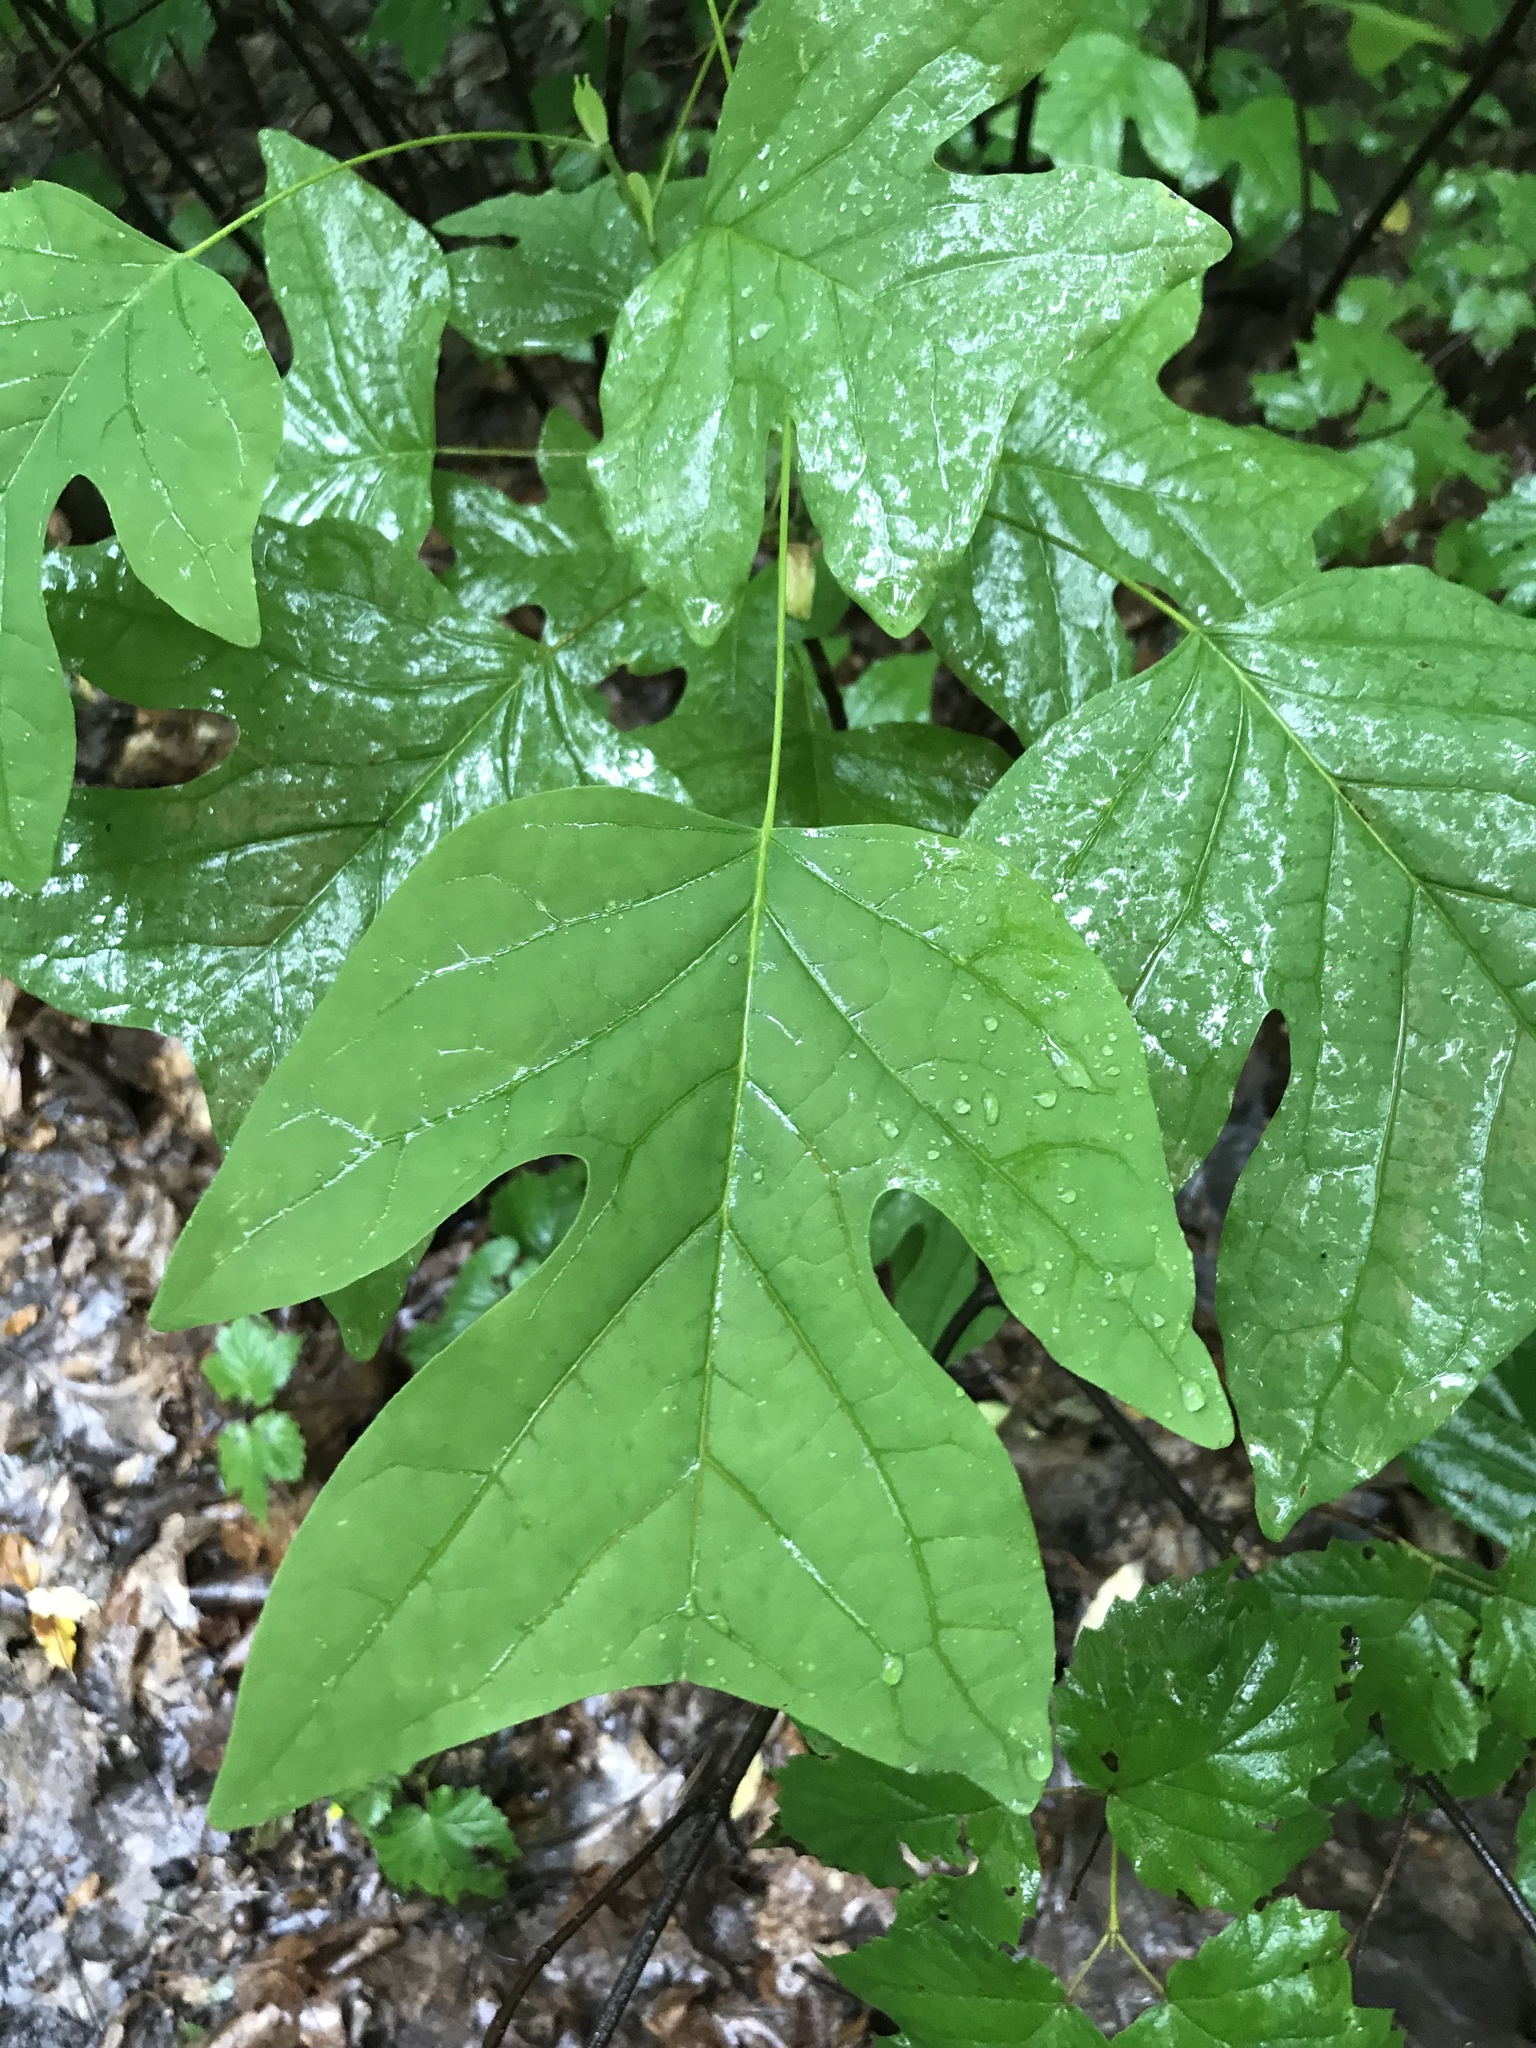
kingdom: Plantae
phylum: Tracheophyta
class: Magnoliopsida
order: Magnoliales
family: Magnoliaceae
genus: Liriodendron
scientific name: Liriodendron tulipifera
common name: Tulip tree
